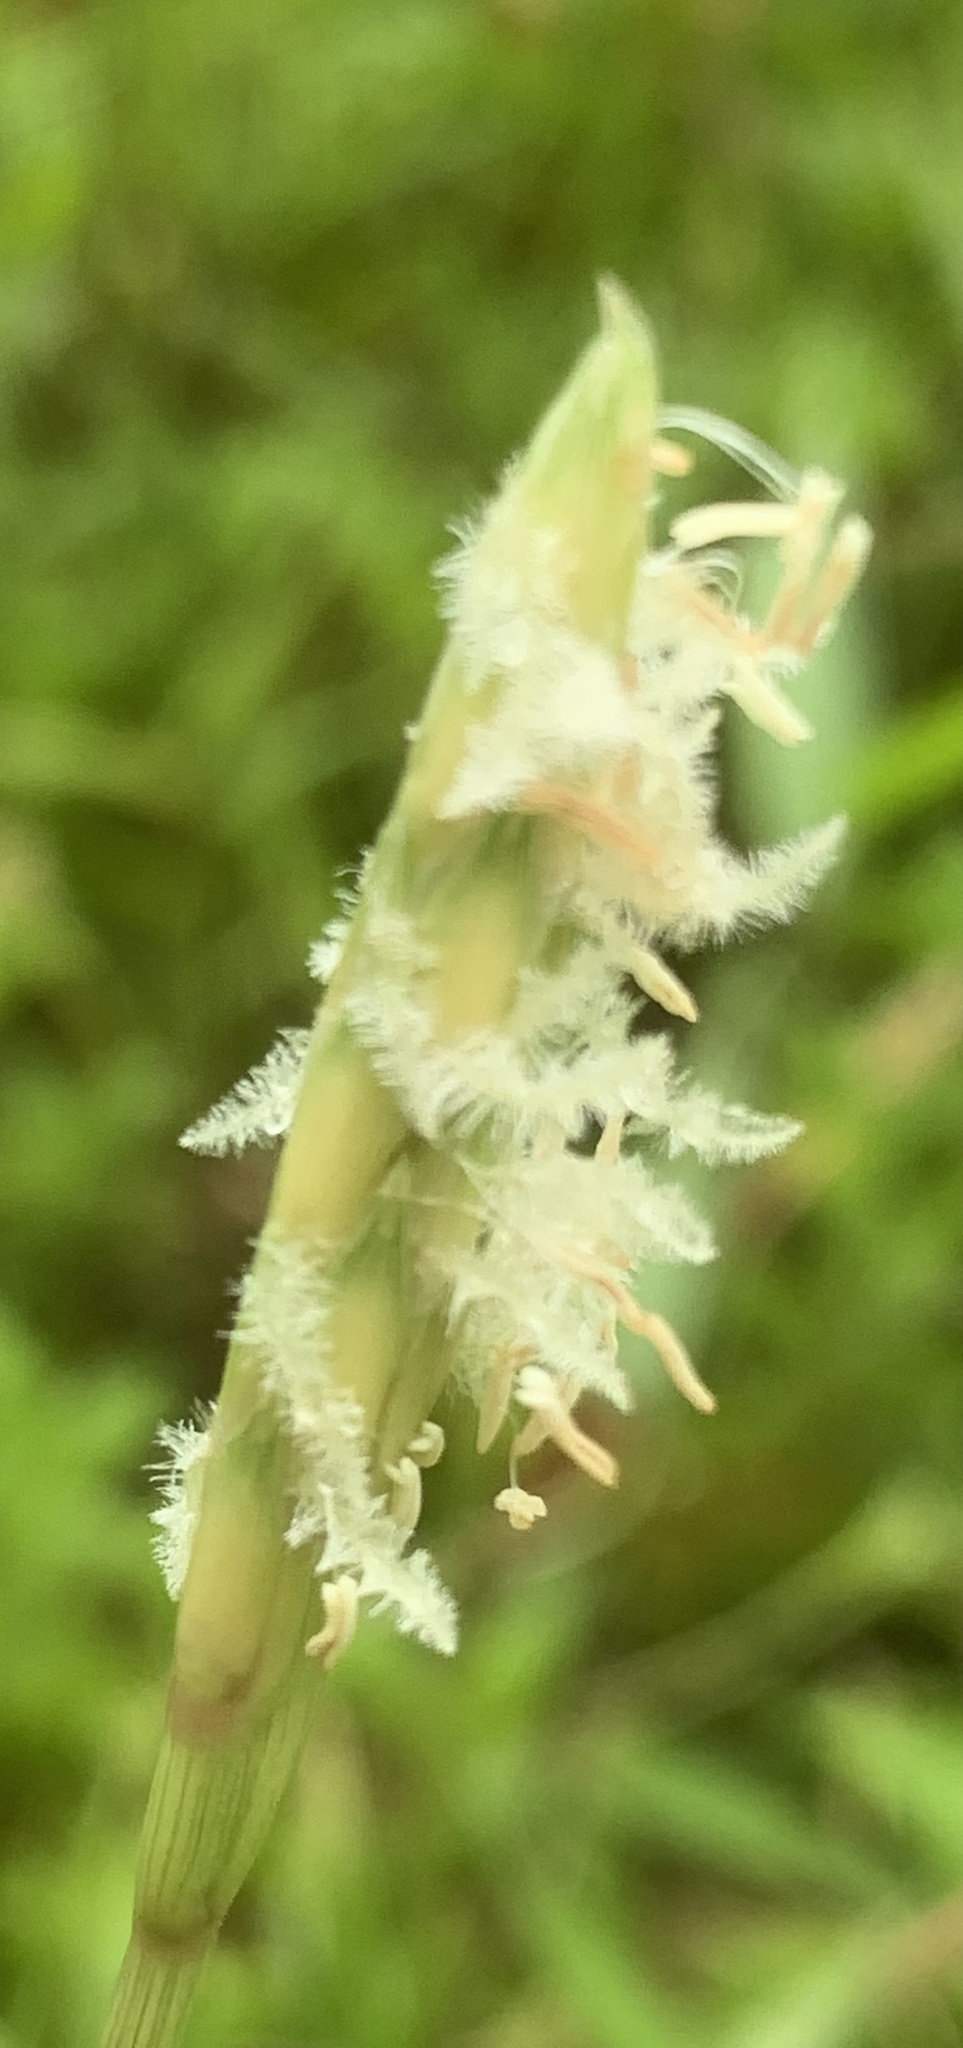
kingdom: Plantae
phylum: Tracheophyta
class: Liliopsida
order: Poales
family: Poaceae
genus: Ischaemum
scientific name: Ischaemum muticum
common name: Drought grass
